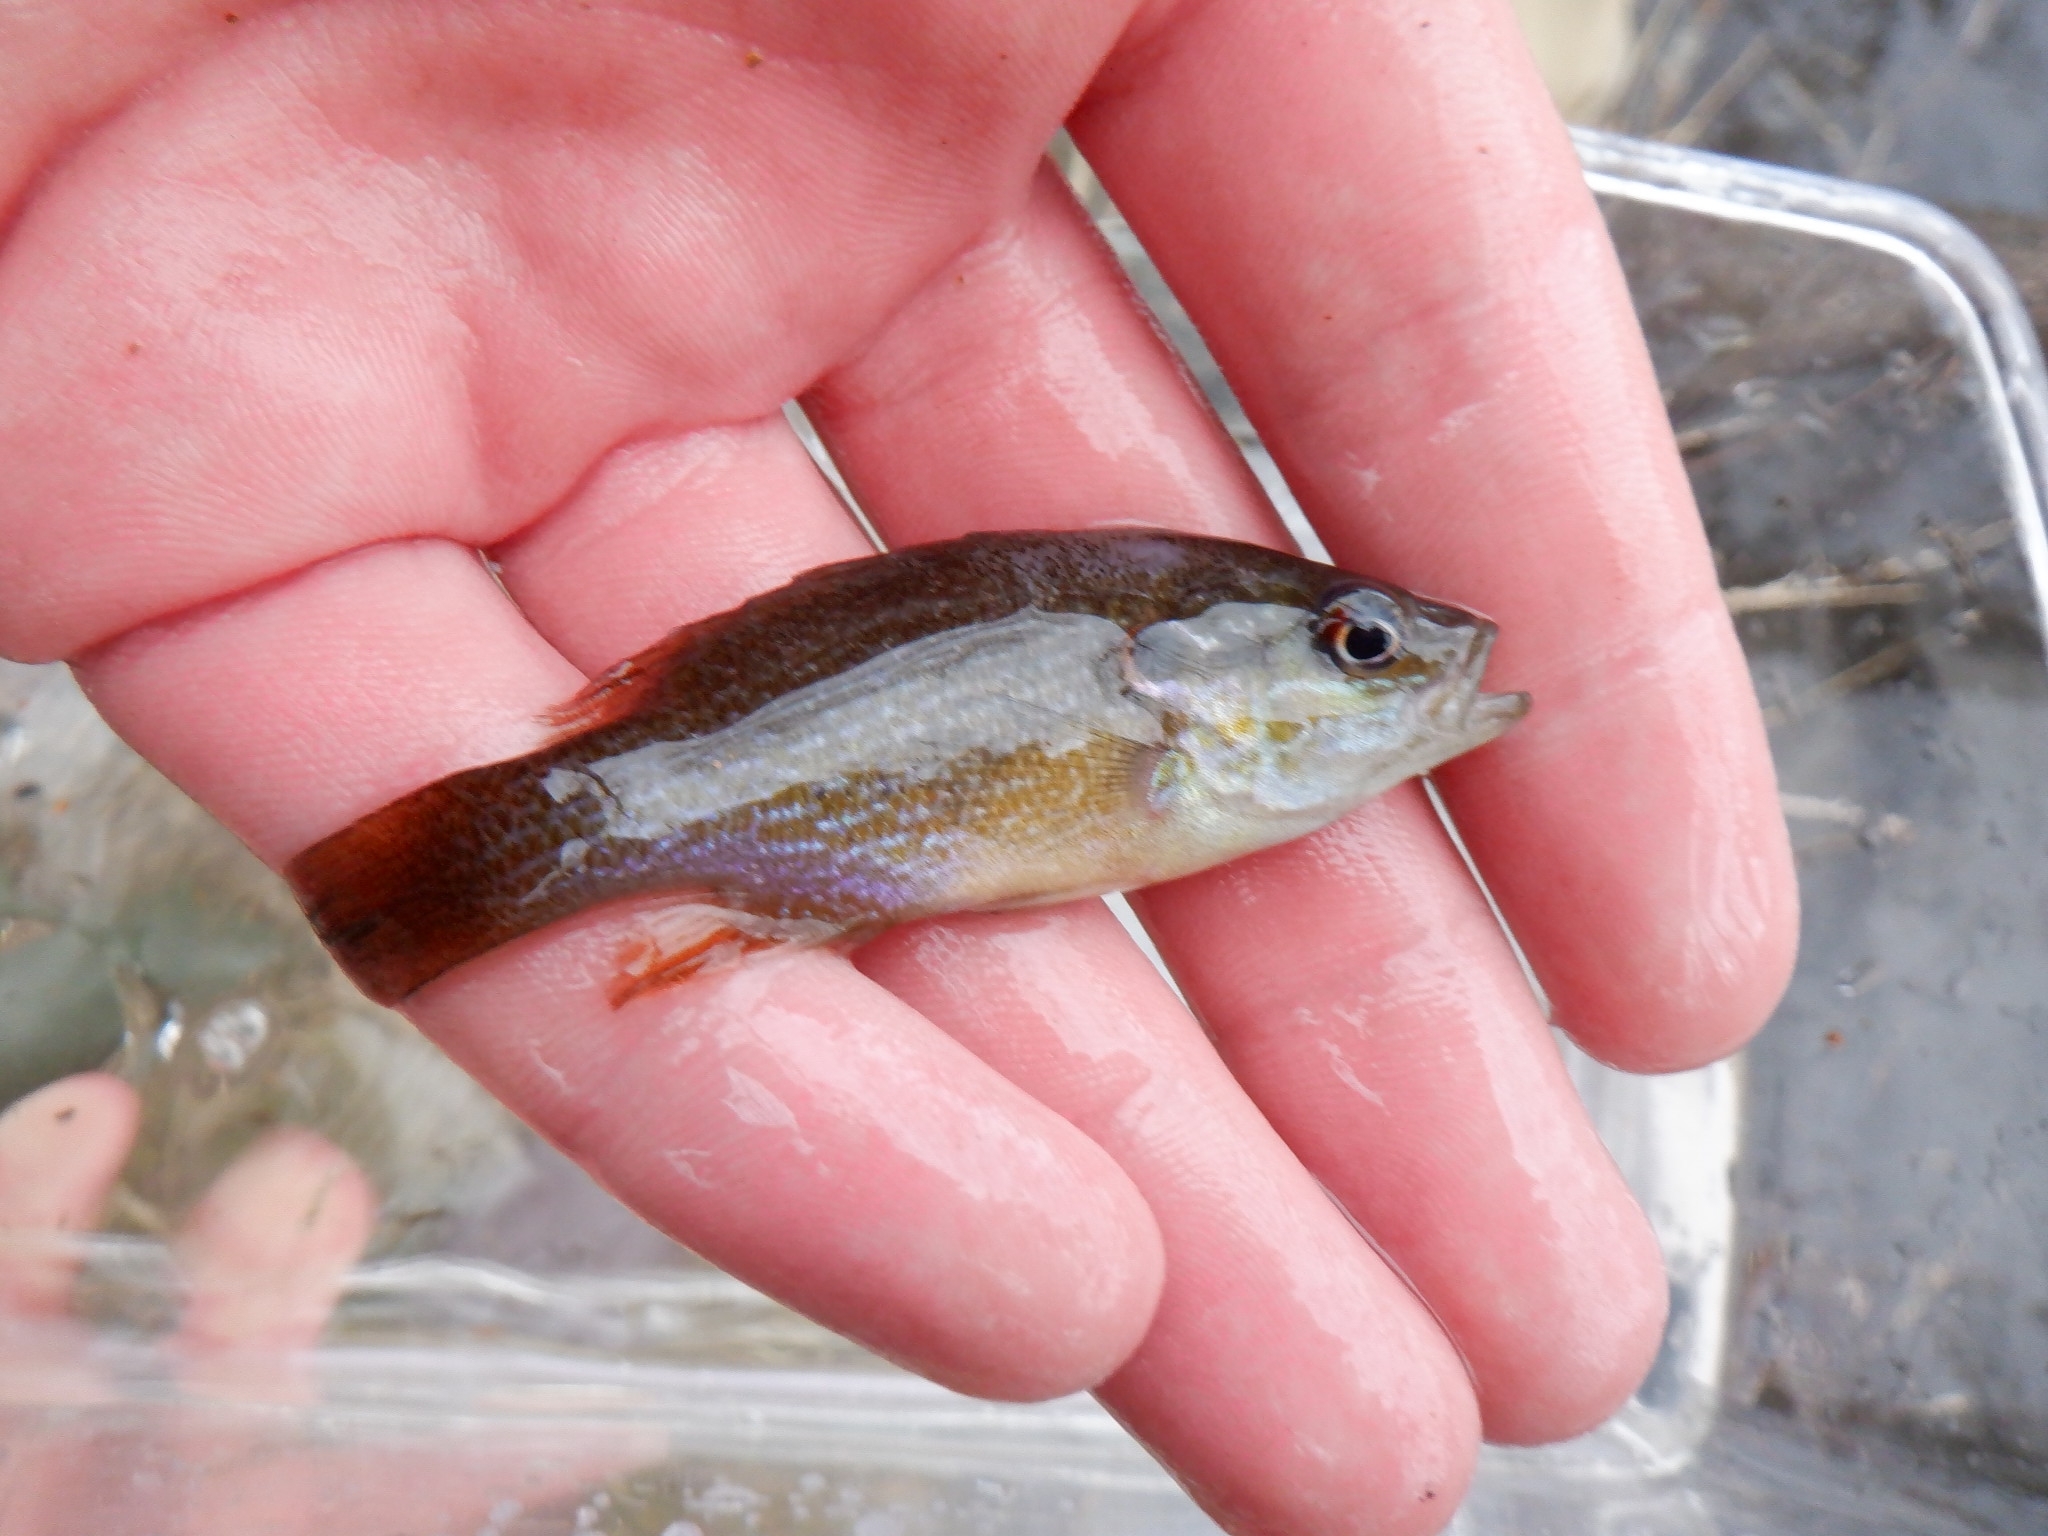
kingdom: Animalia
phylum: Chordata
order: Perciformes
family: Centrarchidae
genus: Lepomis
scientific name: Lepomis cyanellus
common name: Green sunfish
